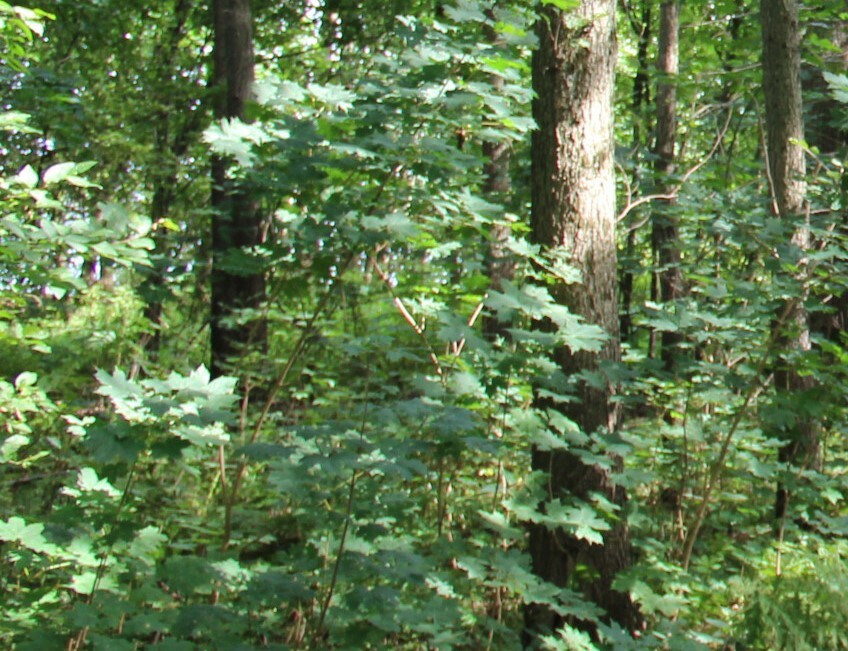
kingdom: Plantae
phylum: Tracheophyta
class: Magnoliopsida
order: Sapindales
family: Sapindaceae
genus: Acer
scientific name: Acer platanoides
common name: Norway maple
